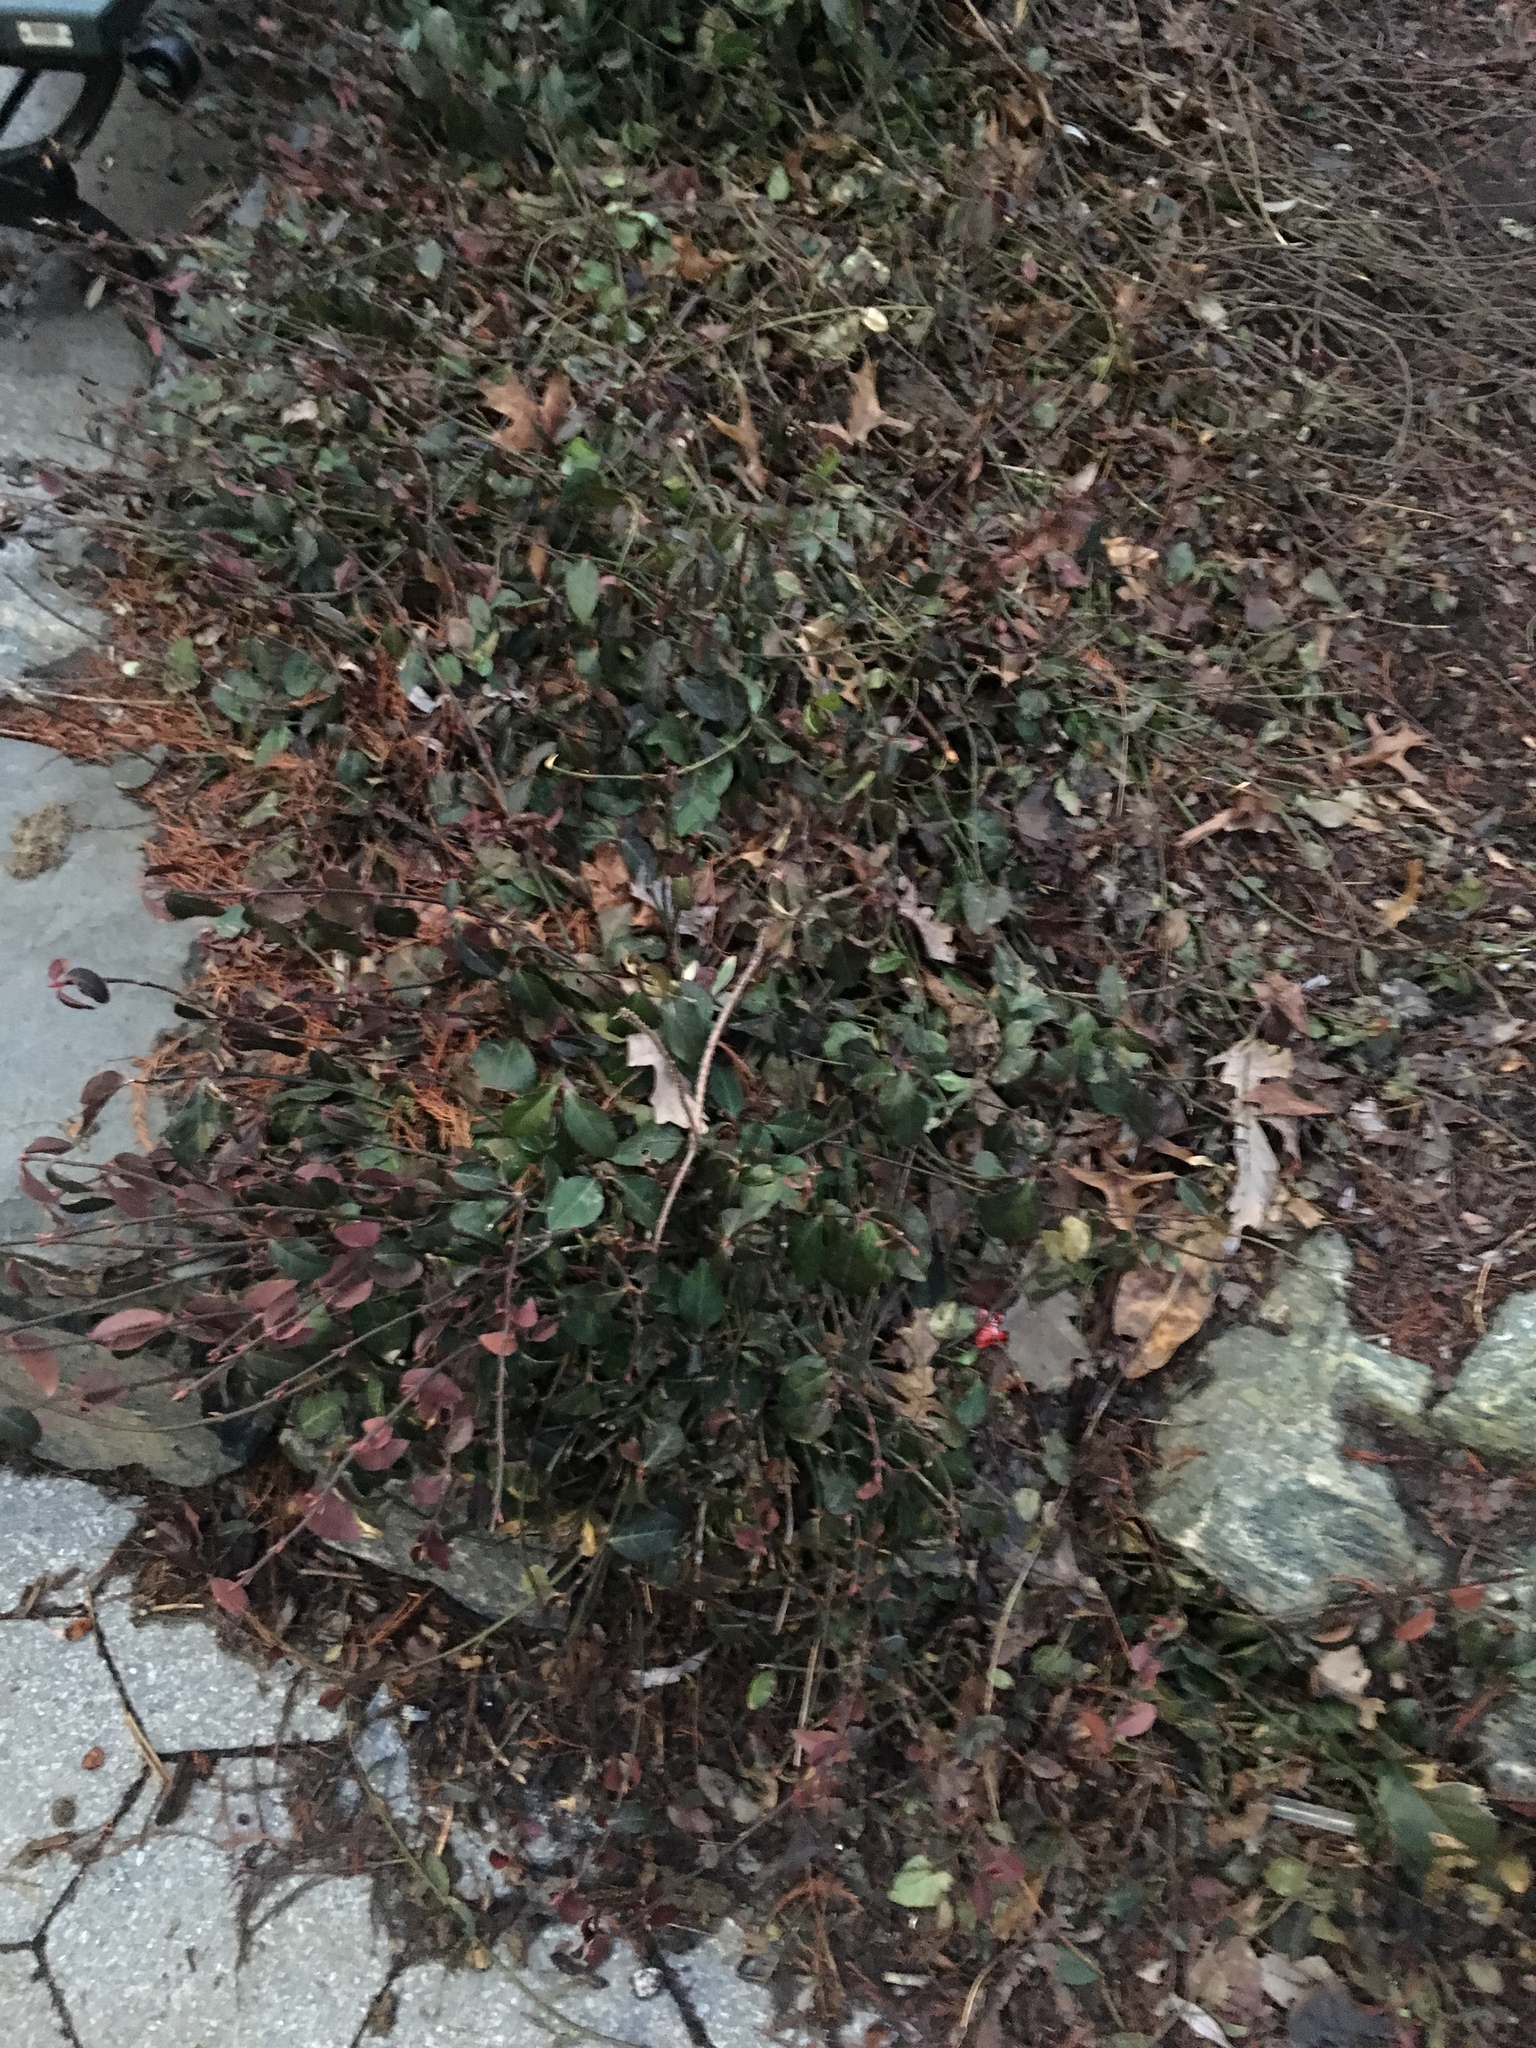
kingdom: Plantae
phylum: Tracheophyta
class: Magnoliopsida
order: Celastrales
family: Celastraceae
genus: Euonymus
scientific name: Euonymus fortunei
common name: Climbing euonymus
